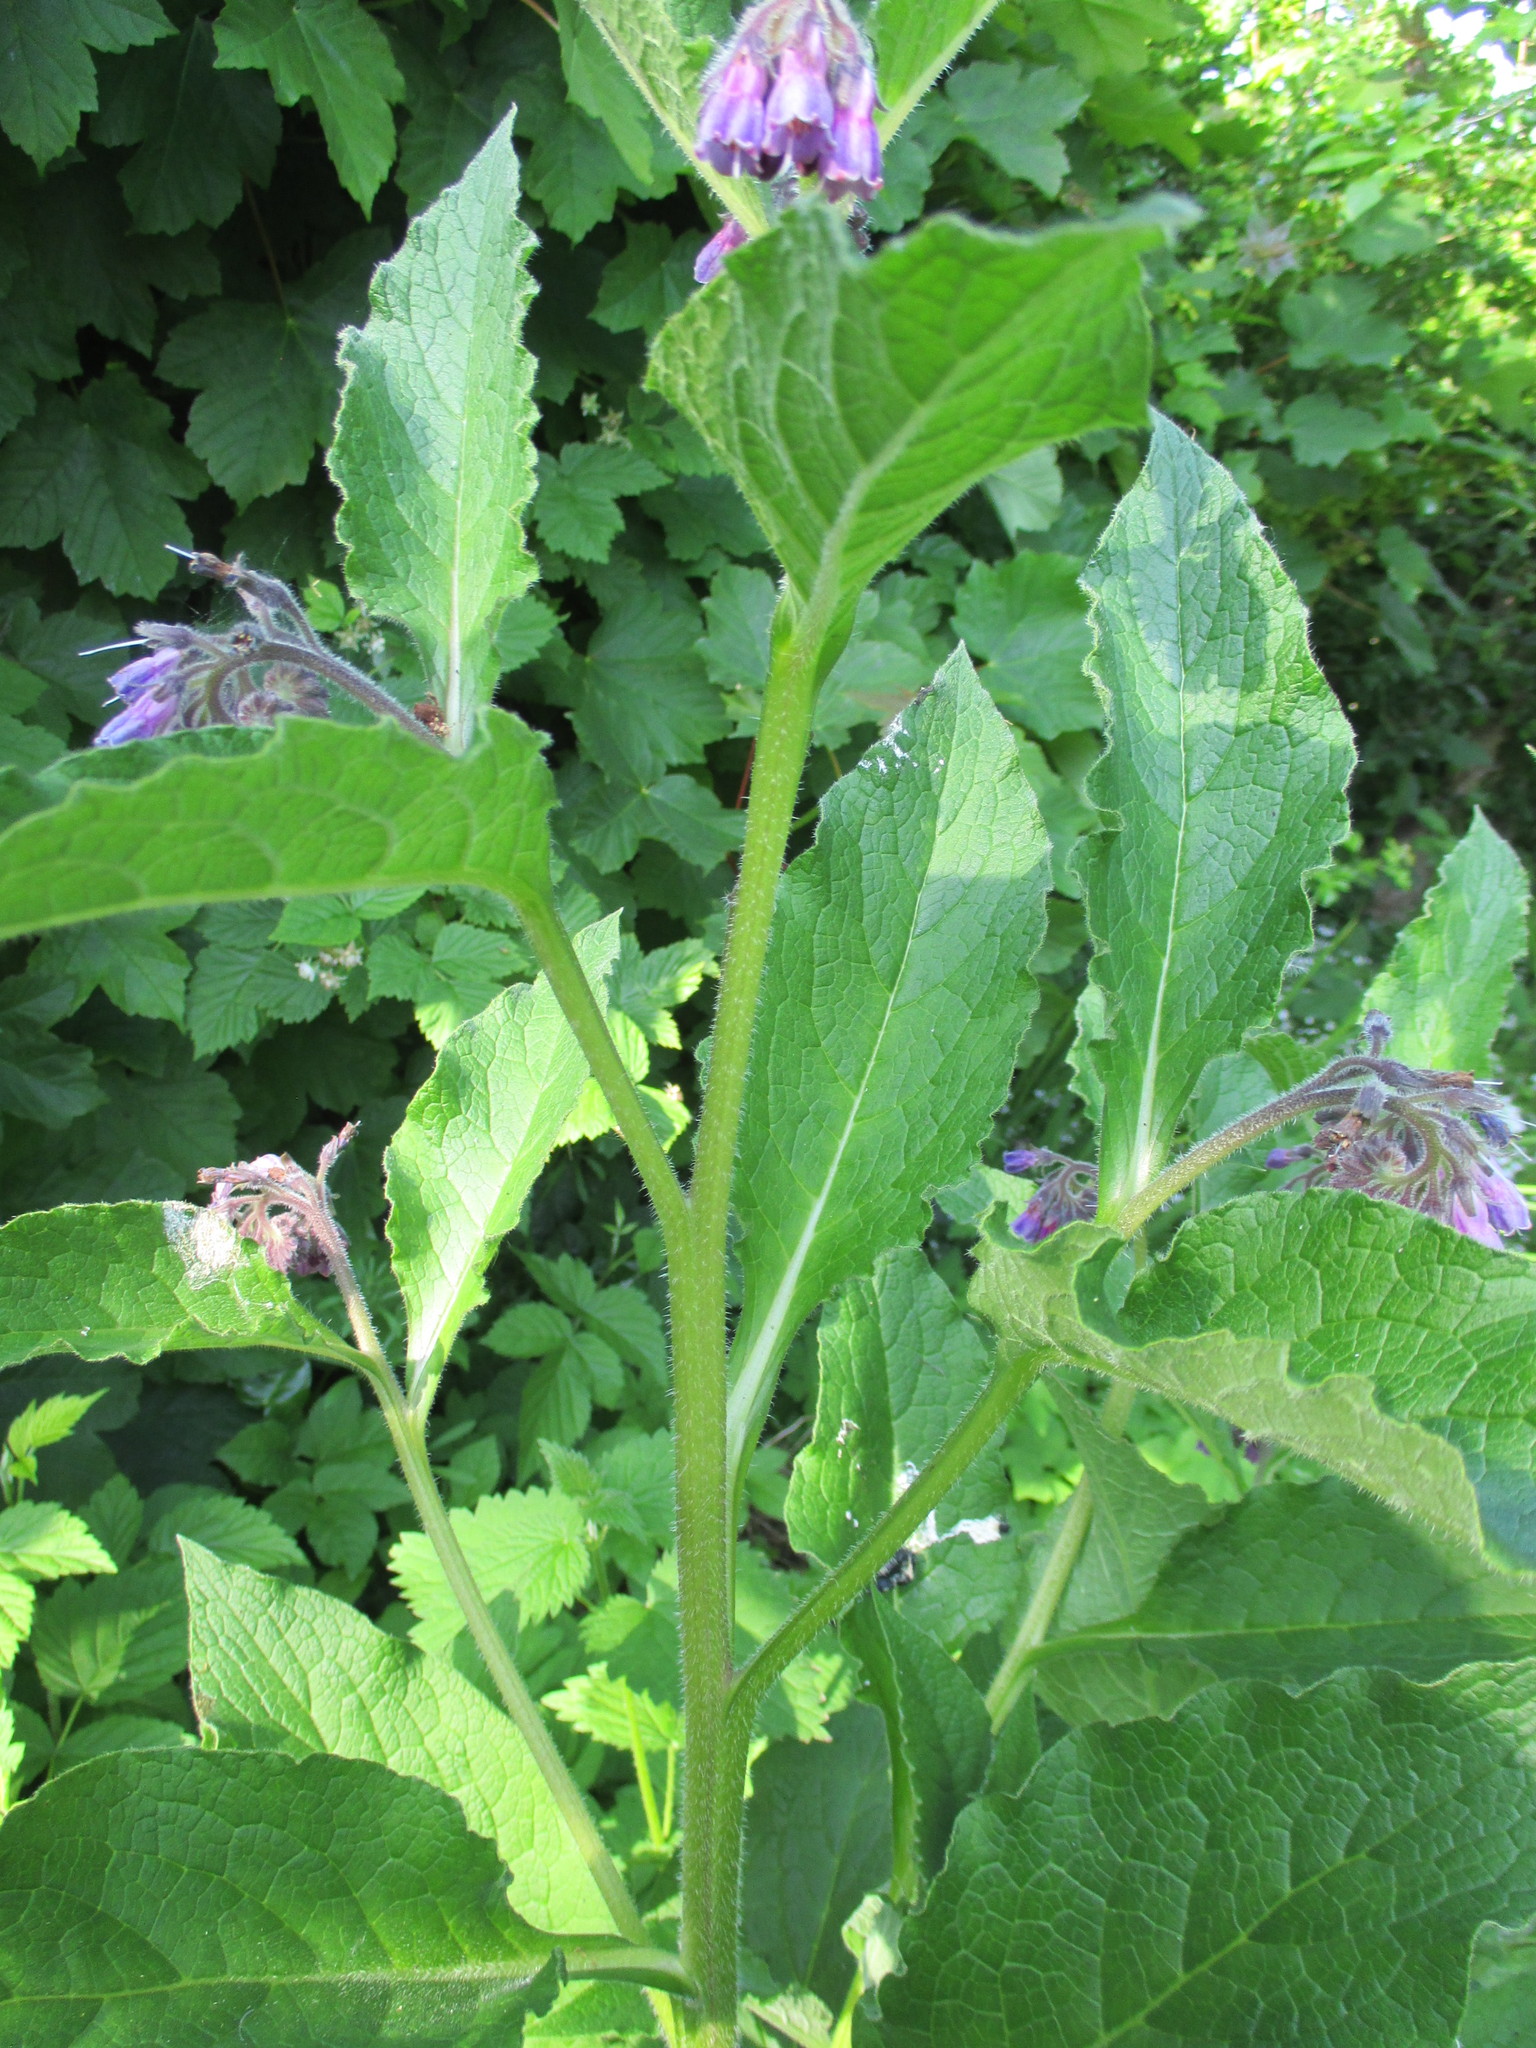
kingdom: Plantae
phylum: Tracheophyta
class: Magnoliopsida
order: Boraginales
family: Boraginaceae
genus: Symphytum
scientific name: Symphytum uplandicum
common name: Russian comfrey
